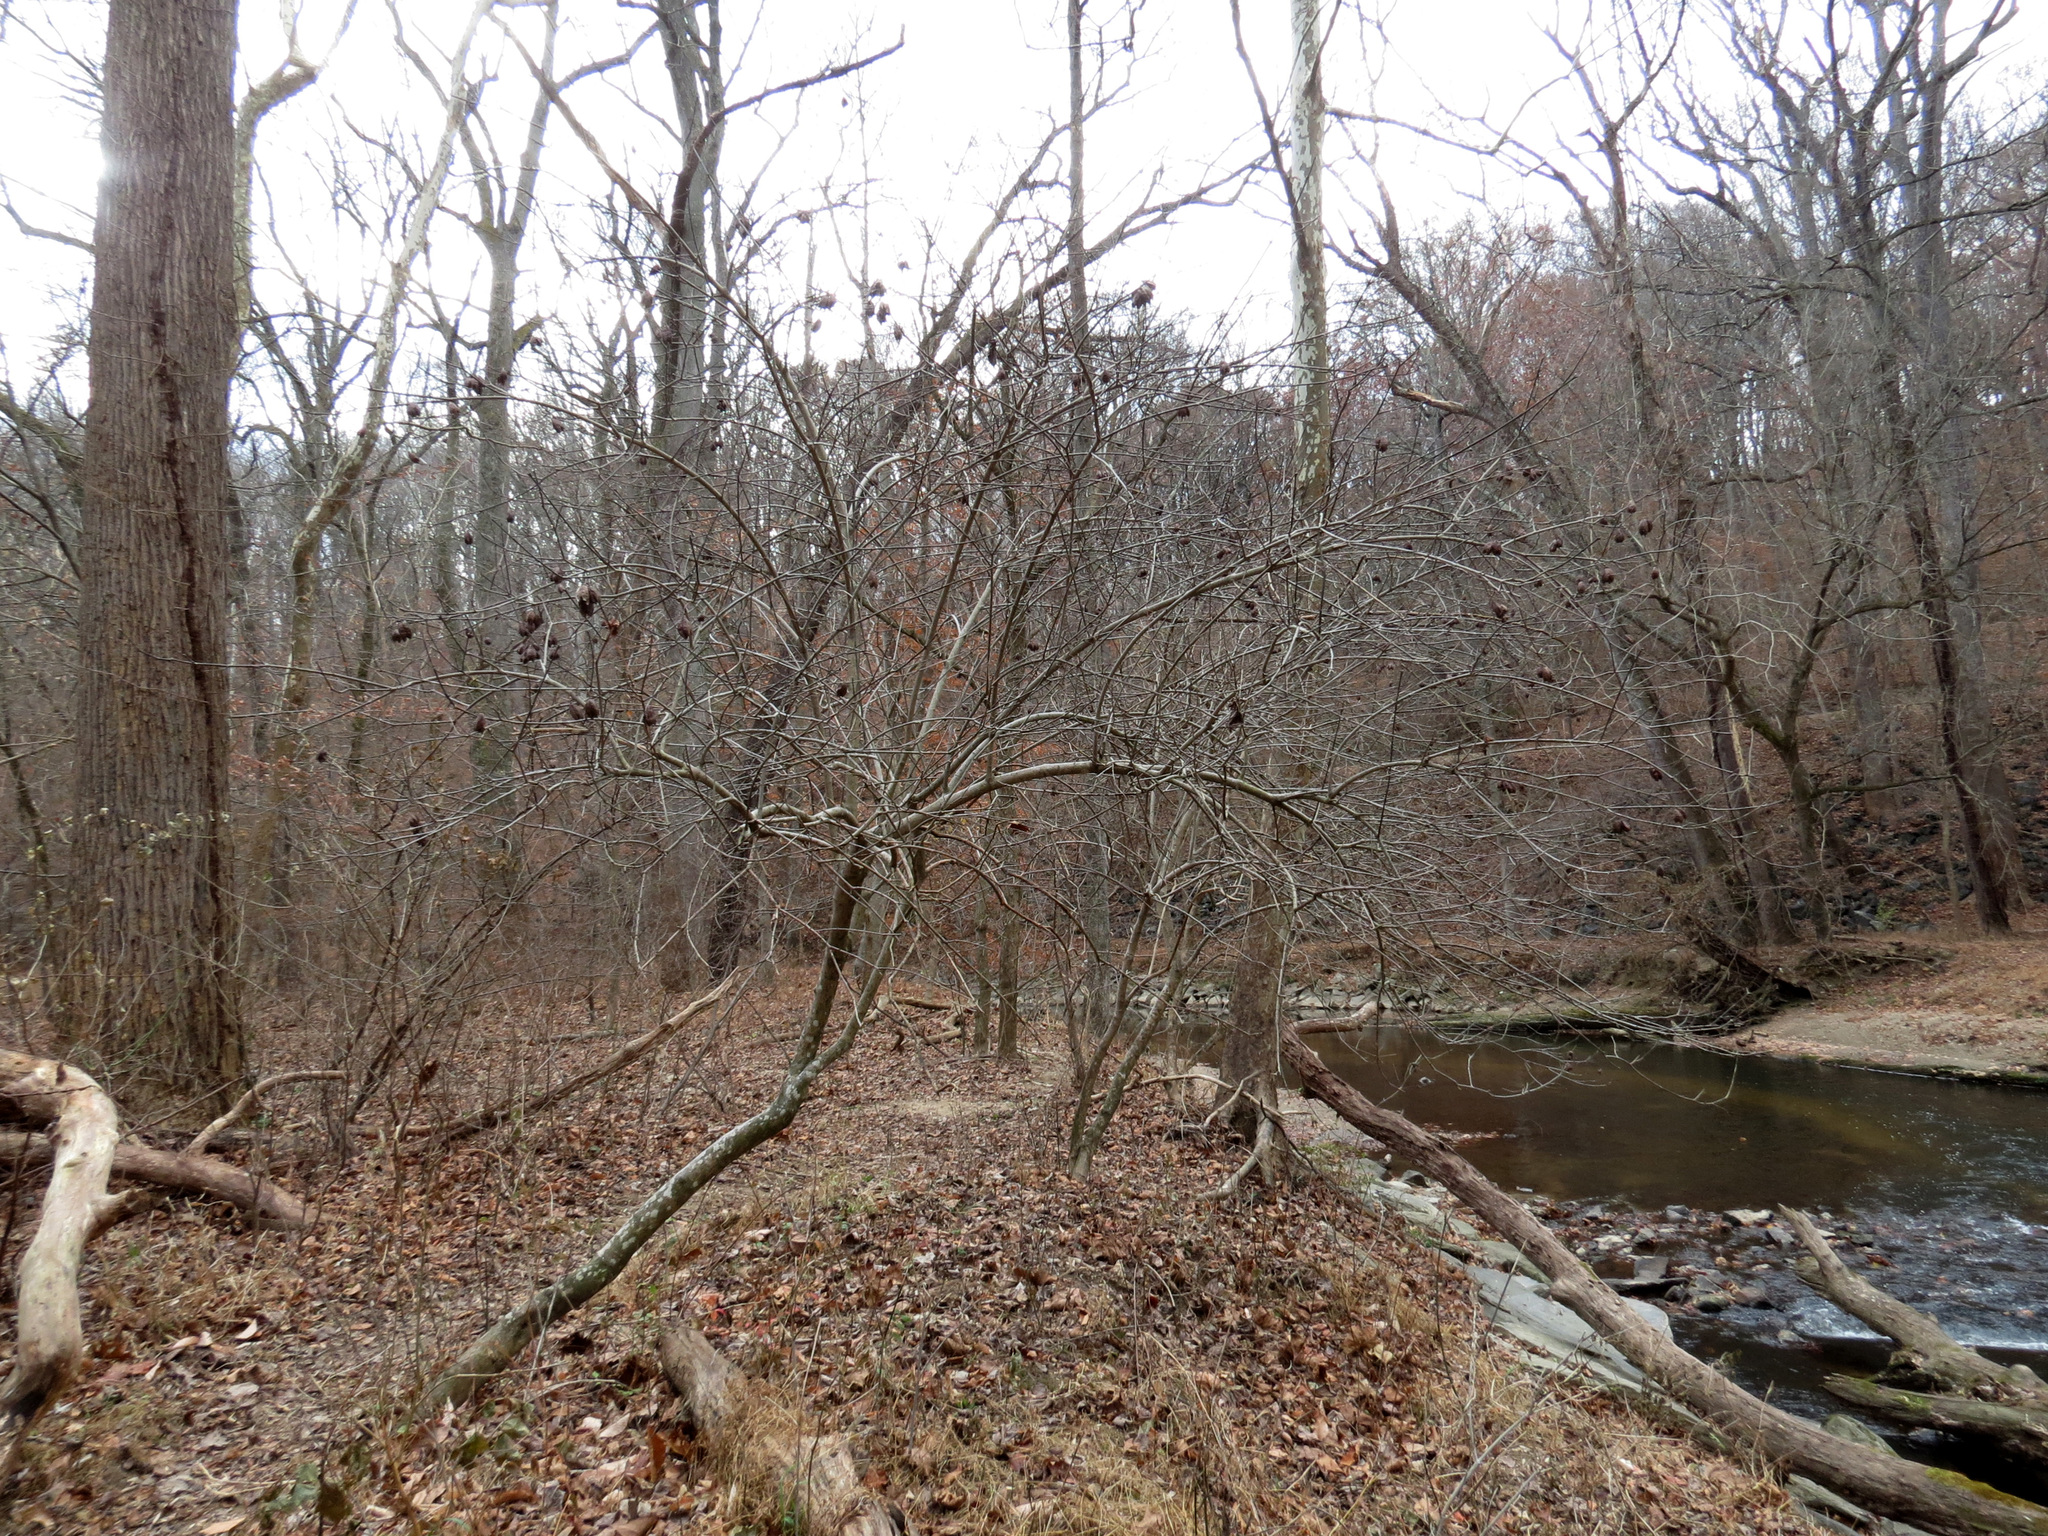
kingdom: Plantae
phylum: Tracheophyta
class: Magnoliopsida
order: Crossosomatales
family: Staphyleaceae
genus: Staphylea
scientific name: Staphylea trifolia
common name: American bladdernut
